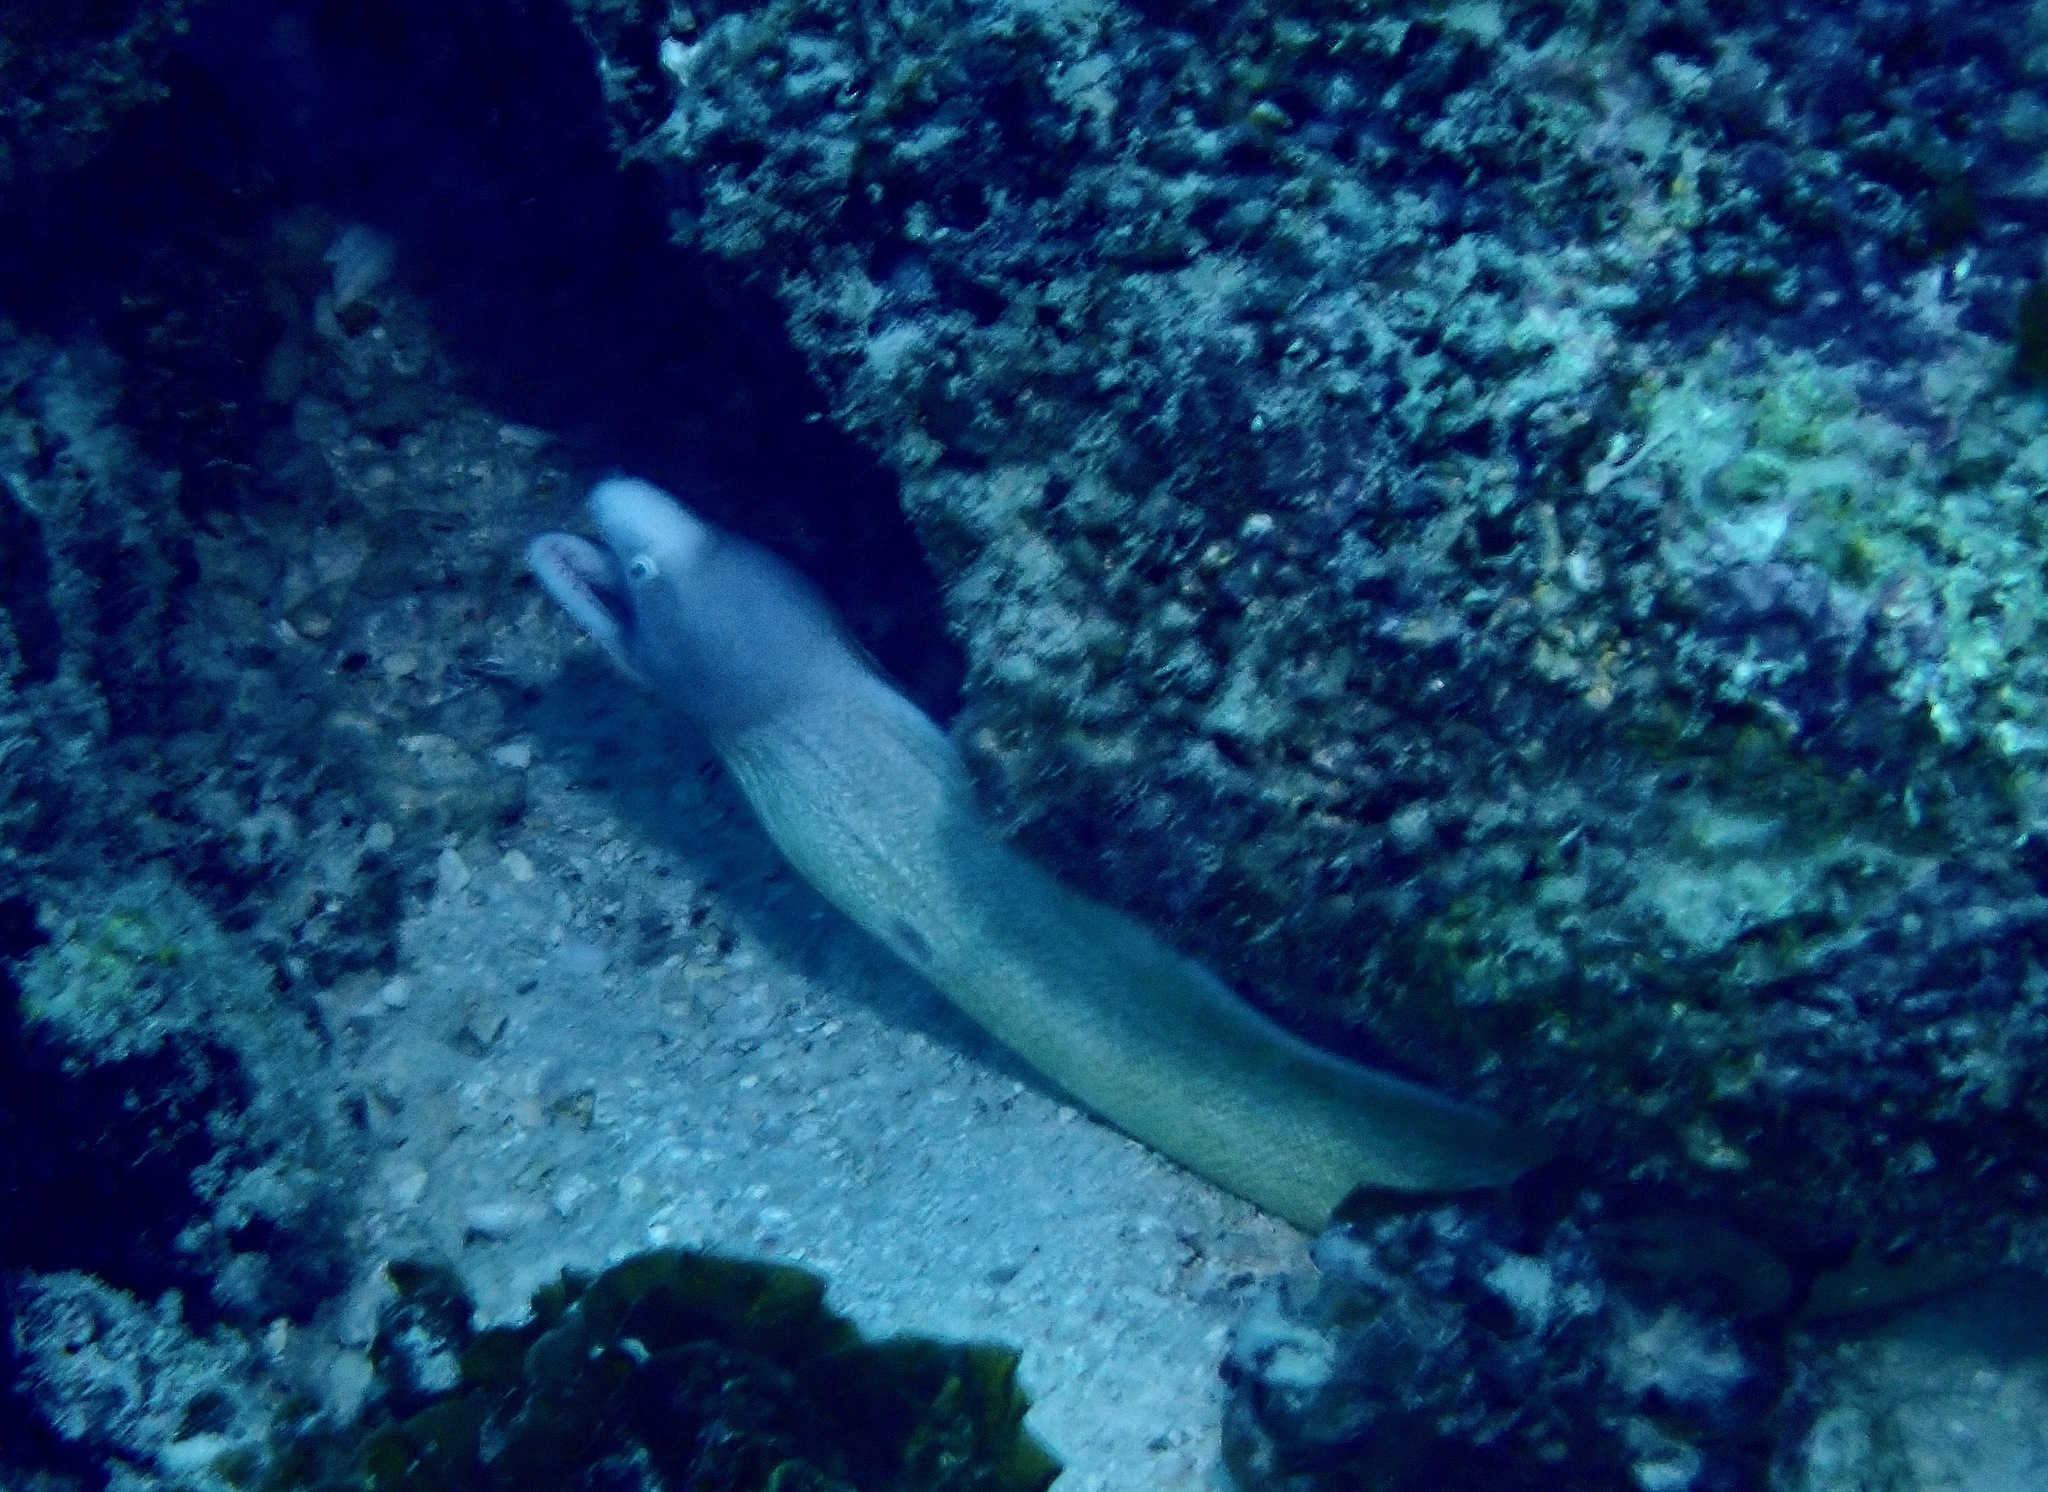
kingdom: Animalia
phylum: Chordata
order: Anguilliformes
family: Muraenidae
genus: Gymnothorax
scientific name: Gymnothorax thyrsoideus
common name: Greyface moray
